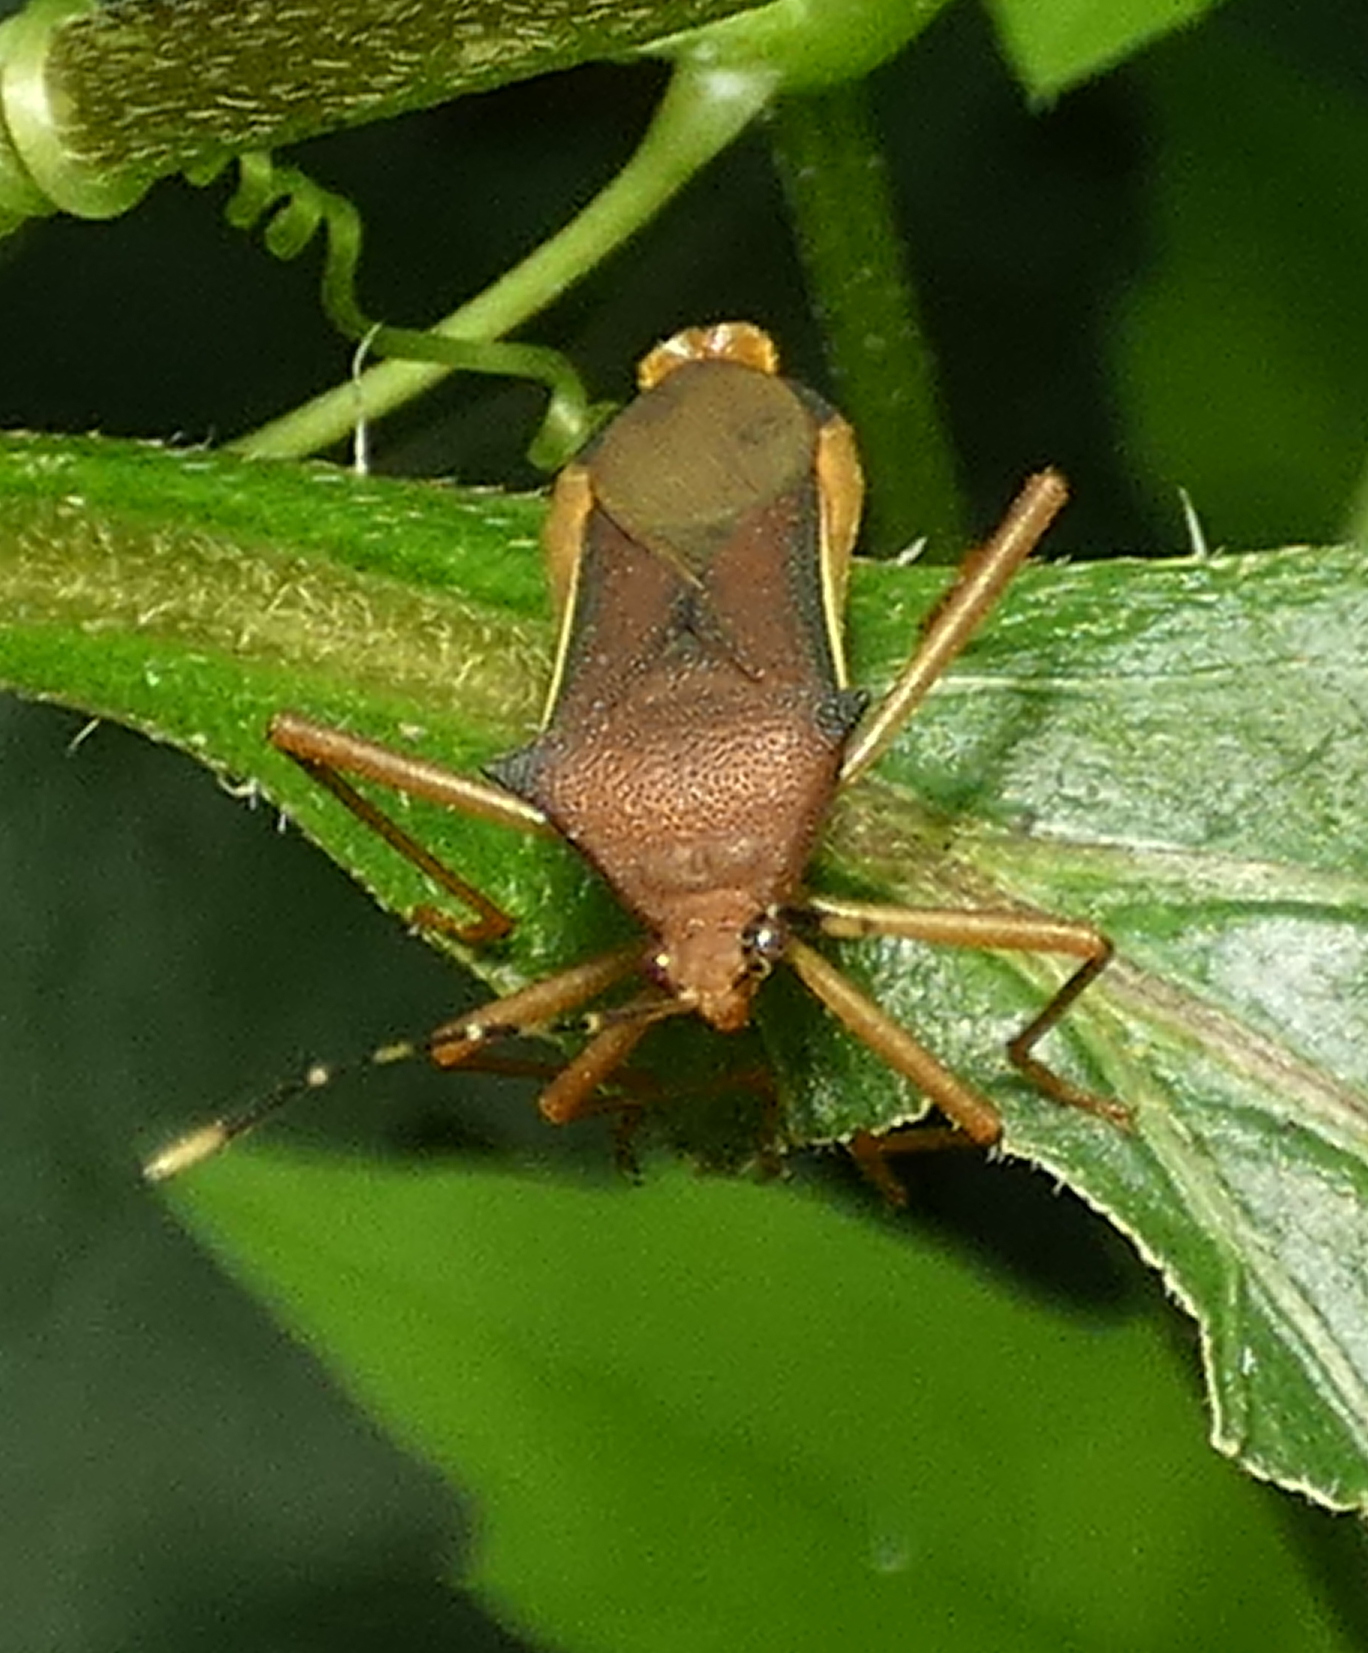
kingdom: Animalia
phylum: Arthropoda
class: Insecta
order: Hemiptera
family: Coreidae
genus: Anasa
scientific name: Anasa varicornis
